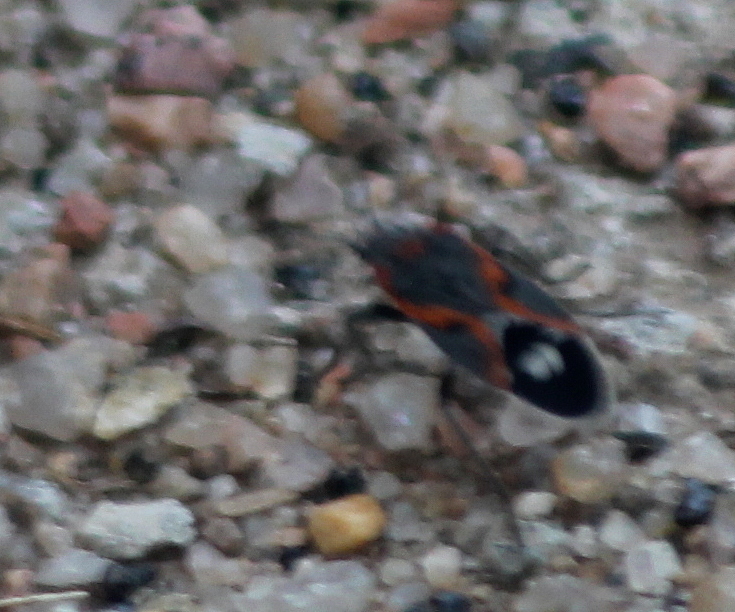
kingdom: Animalia
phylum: Arthropoda
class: Insecta
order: Hemiptera
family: Lygaeidae
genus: Lygaeus
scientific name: Lygaeus kalmii
